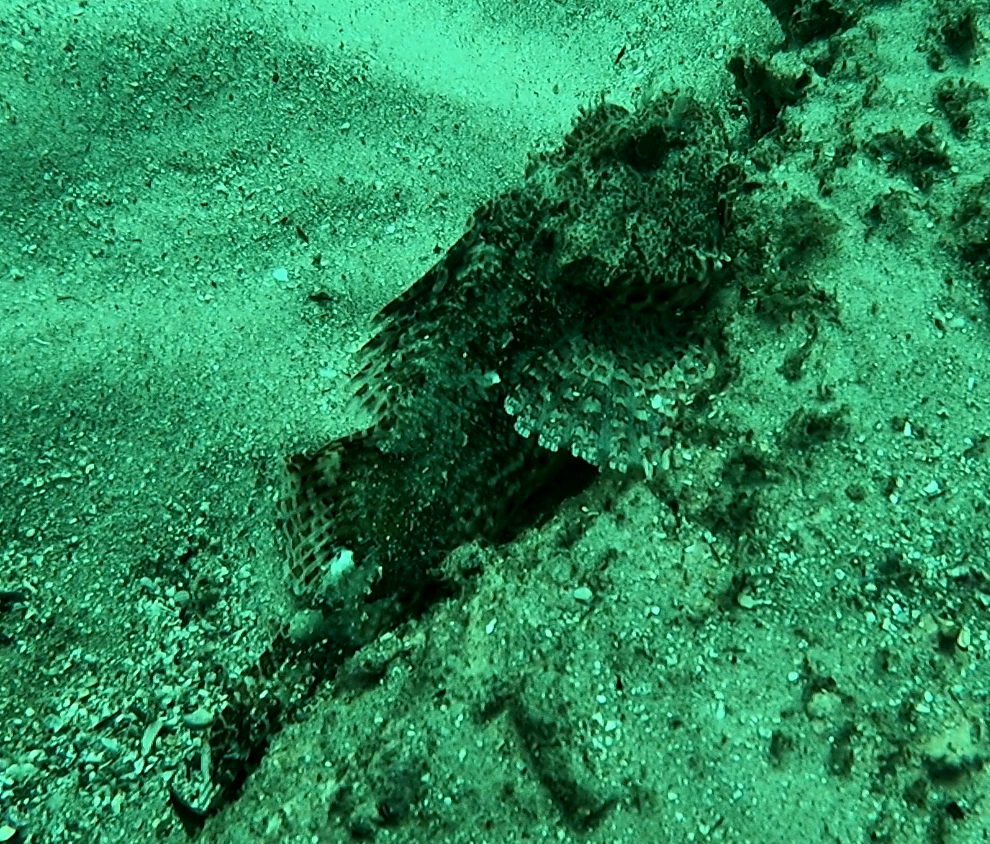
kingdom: Animalia
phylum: Chordata
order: Scorpaeniformes
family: Scorpaenidae
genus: Scorpaena
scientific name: Scorpaena jacksoniensis
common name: Eastern red scorpionfish
